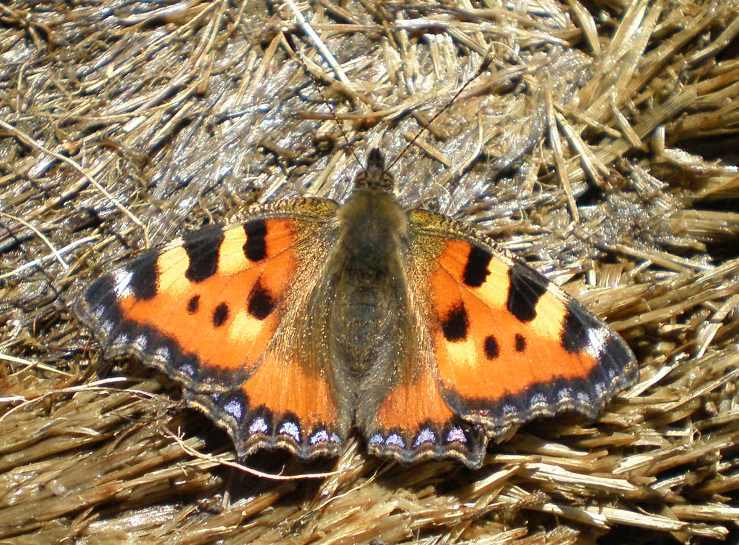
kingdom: Animalia
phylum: Arthropoda
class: Insecta
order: Lepidoptera
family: Nymphalidae
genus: Aglais
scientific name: Aglais urticae
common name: Small tortoiseshell
